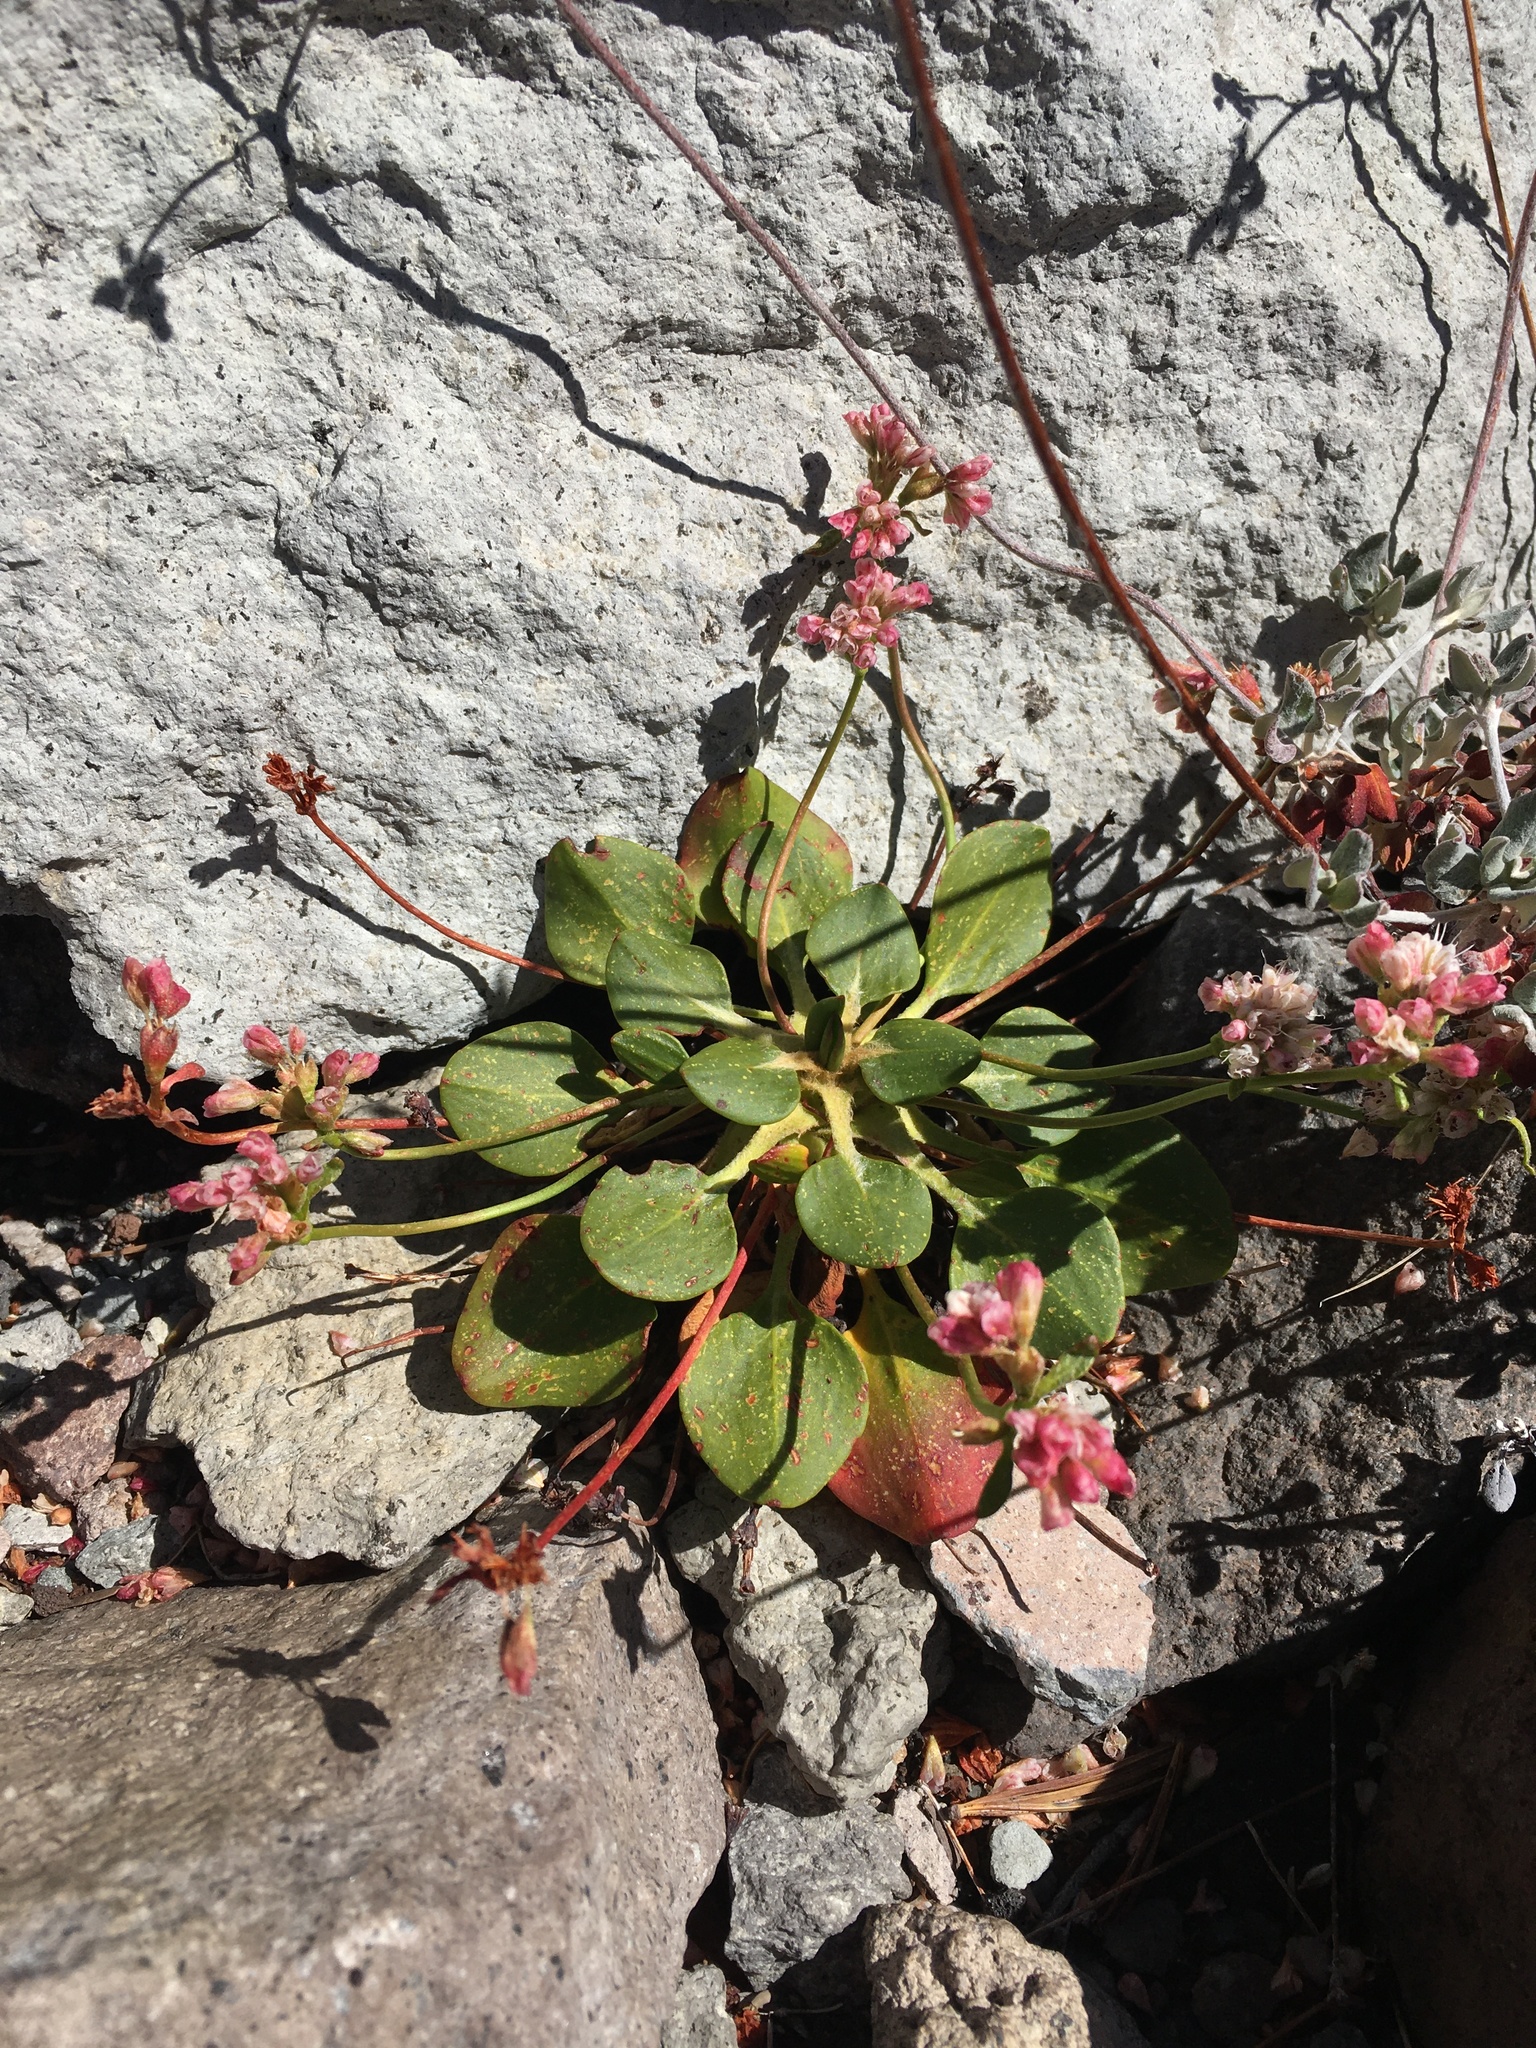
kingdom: Plantae
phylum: Tracheophyta
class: Magnoliopsida
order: Caryophyllales
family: Polygonaceae
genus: Eriogonum
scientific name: Eriogonum pyrolifolium
